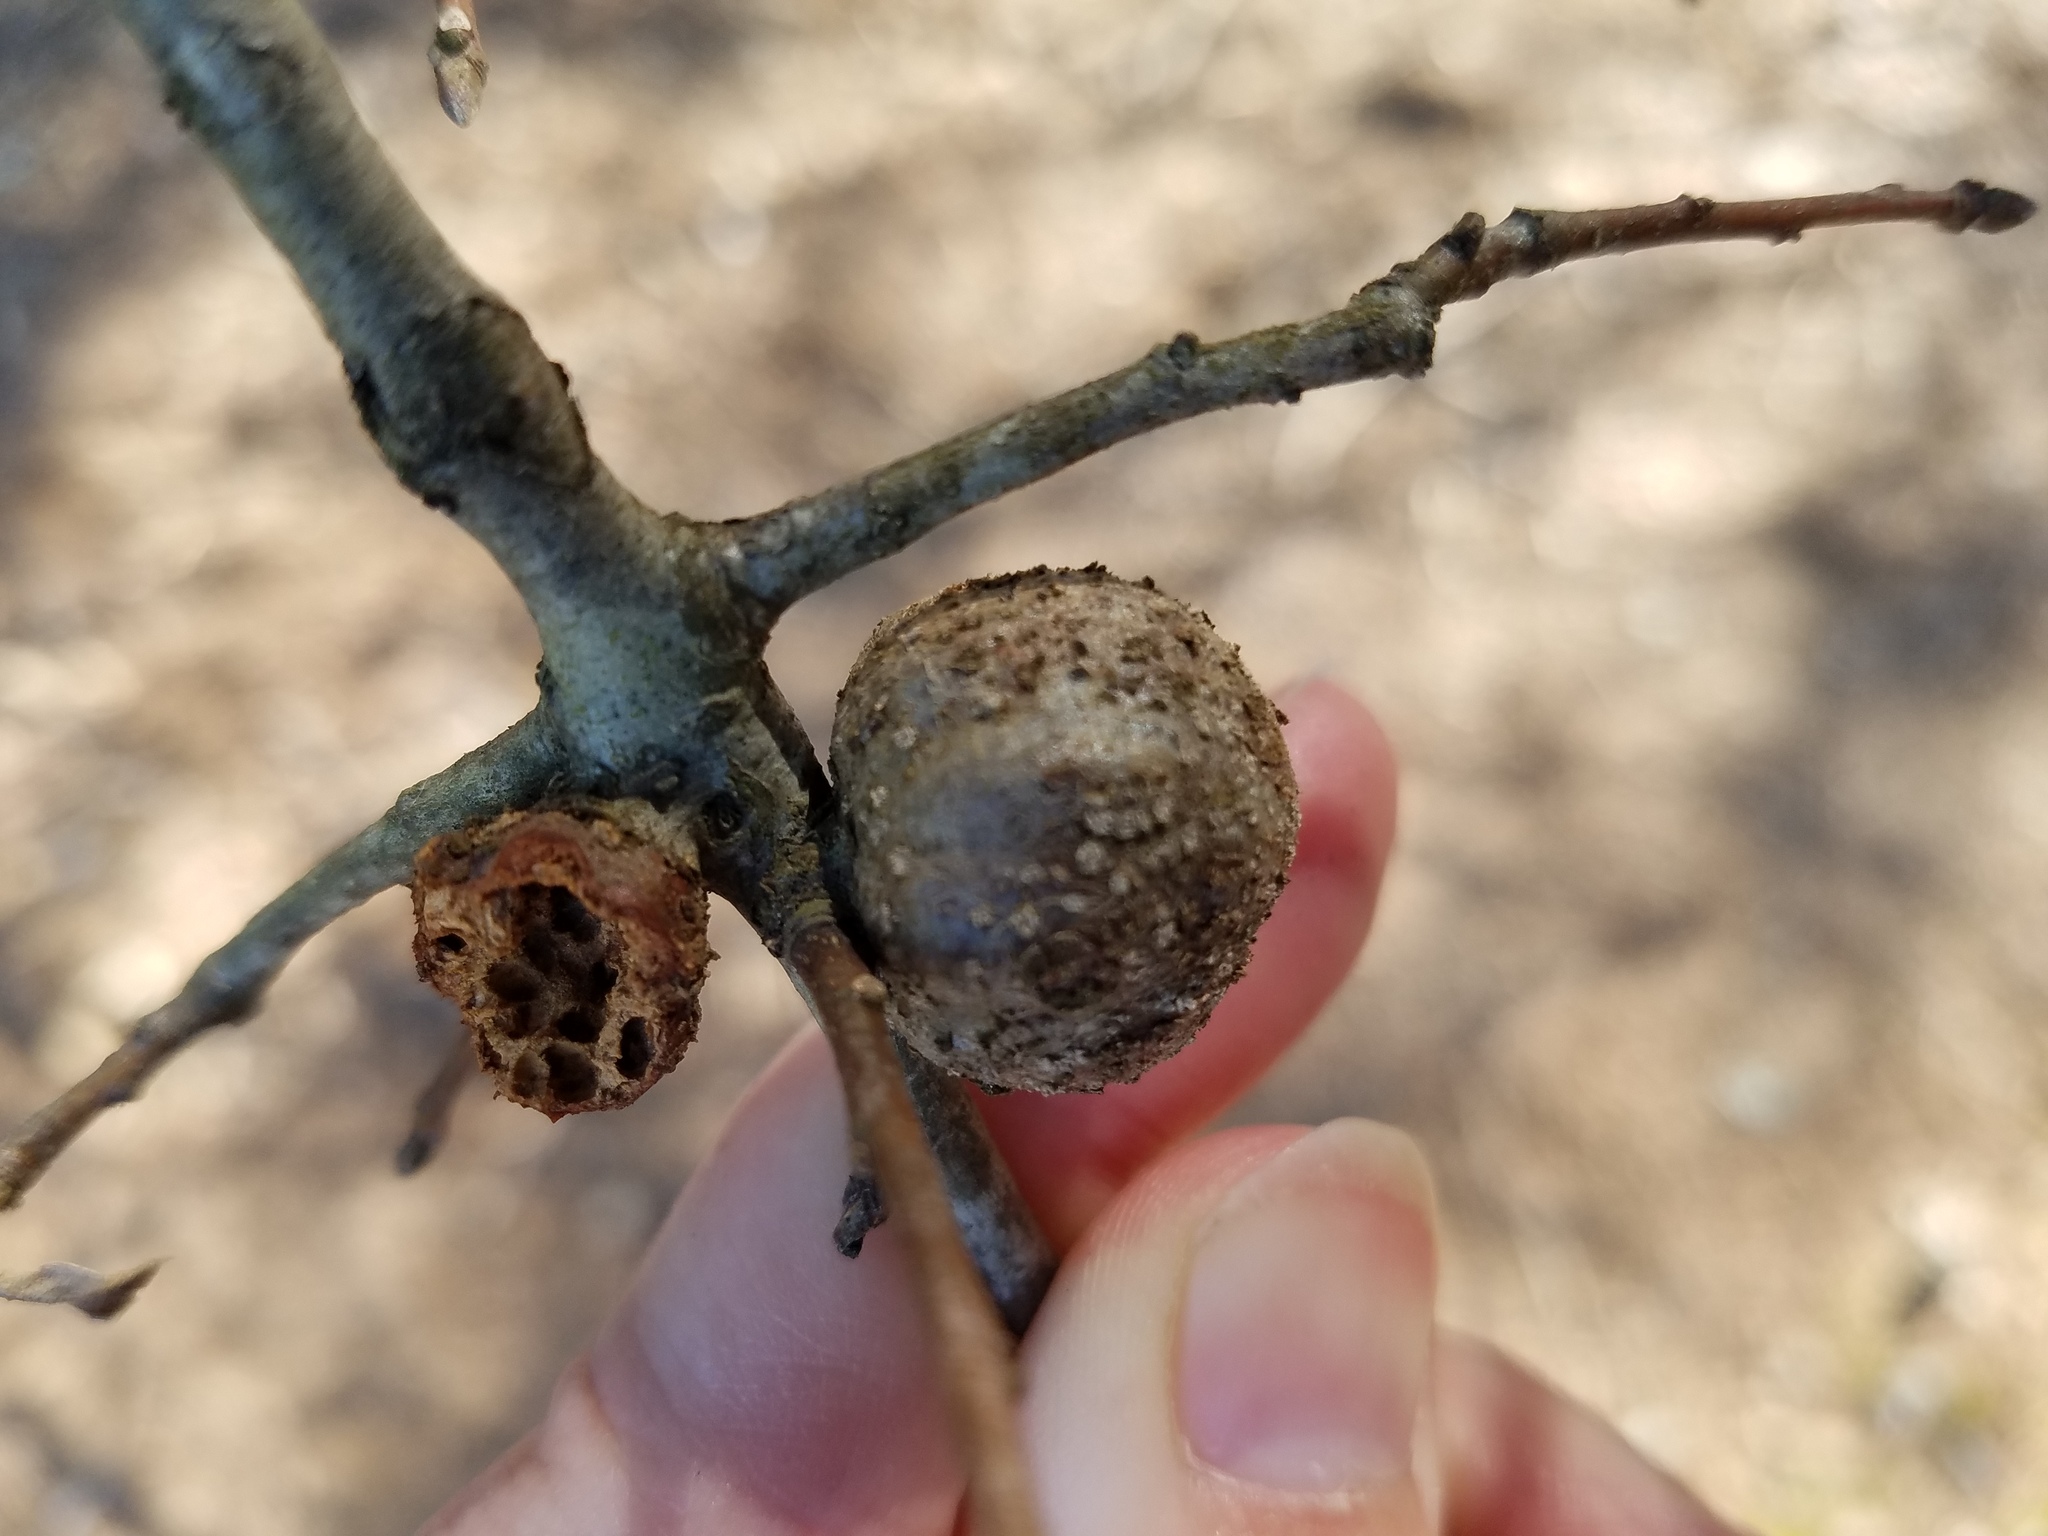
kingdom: Animalia
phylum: Arthropoda
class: Insecta
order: Hymenoptera
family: Cynipidae
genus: Synergus
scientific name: Synergus lignicola
